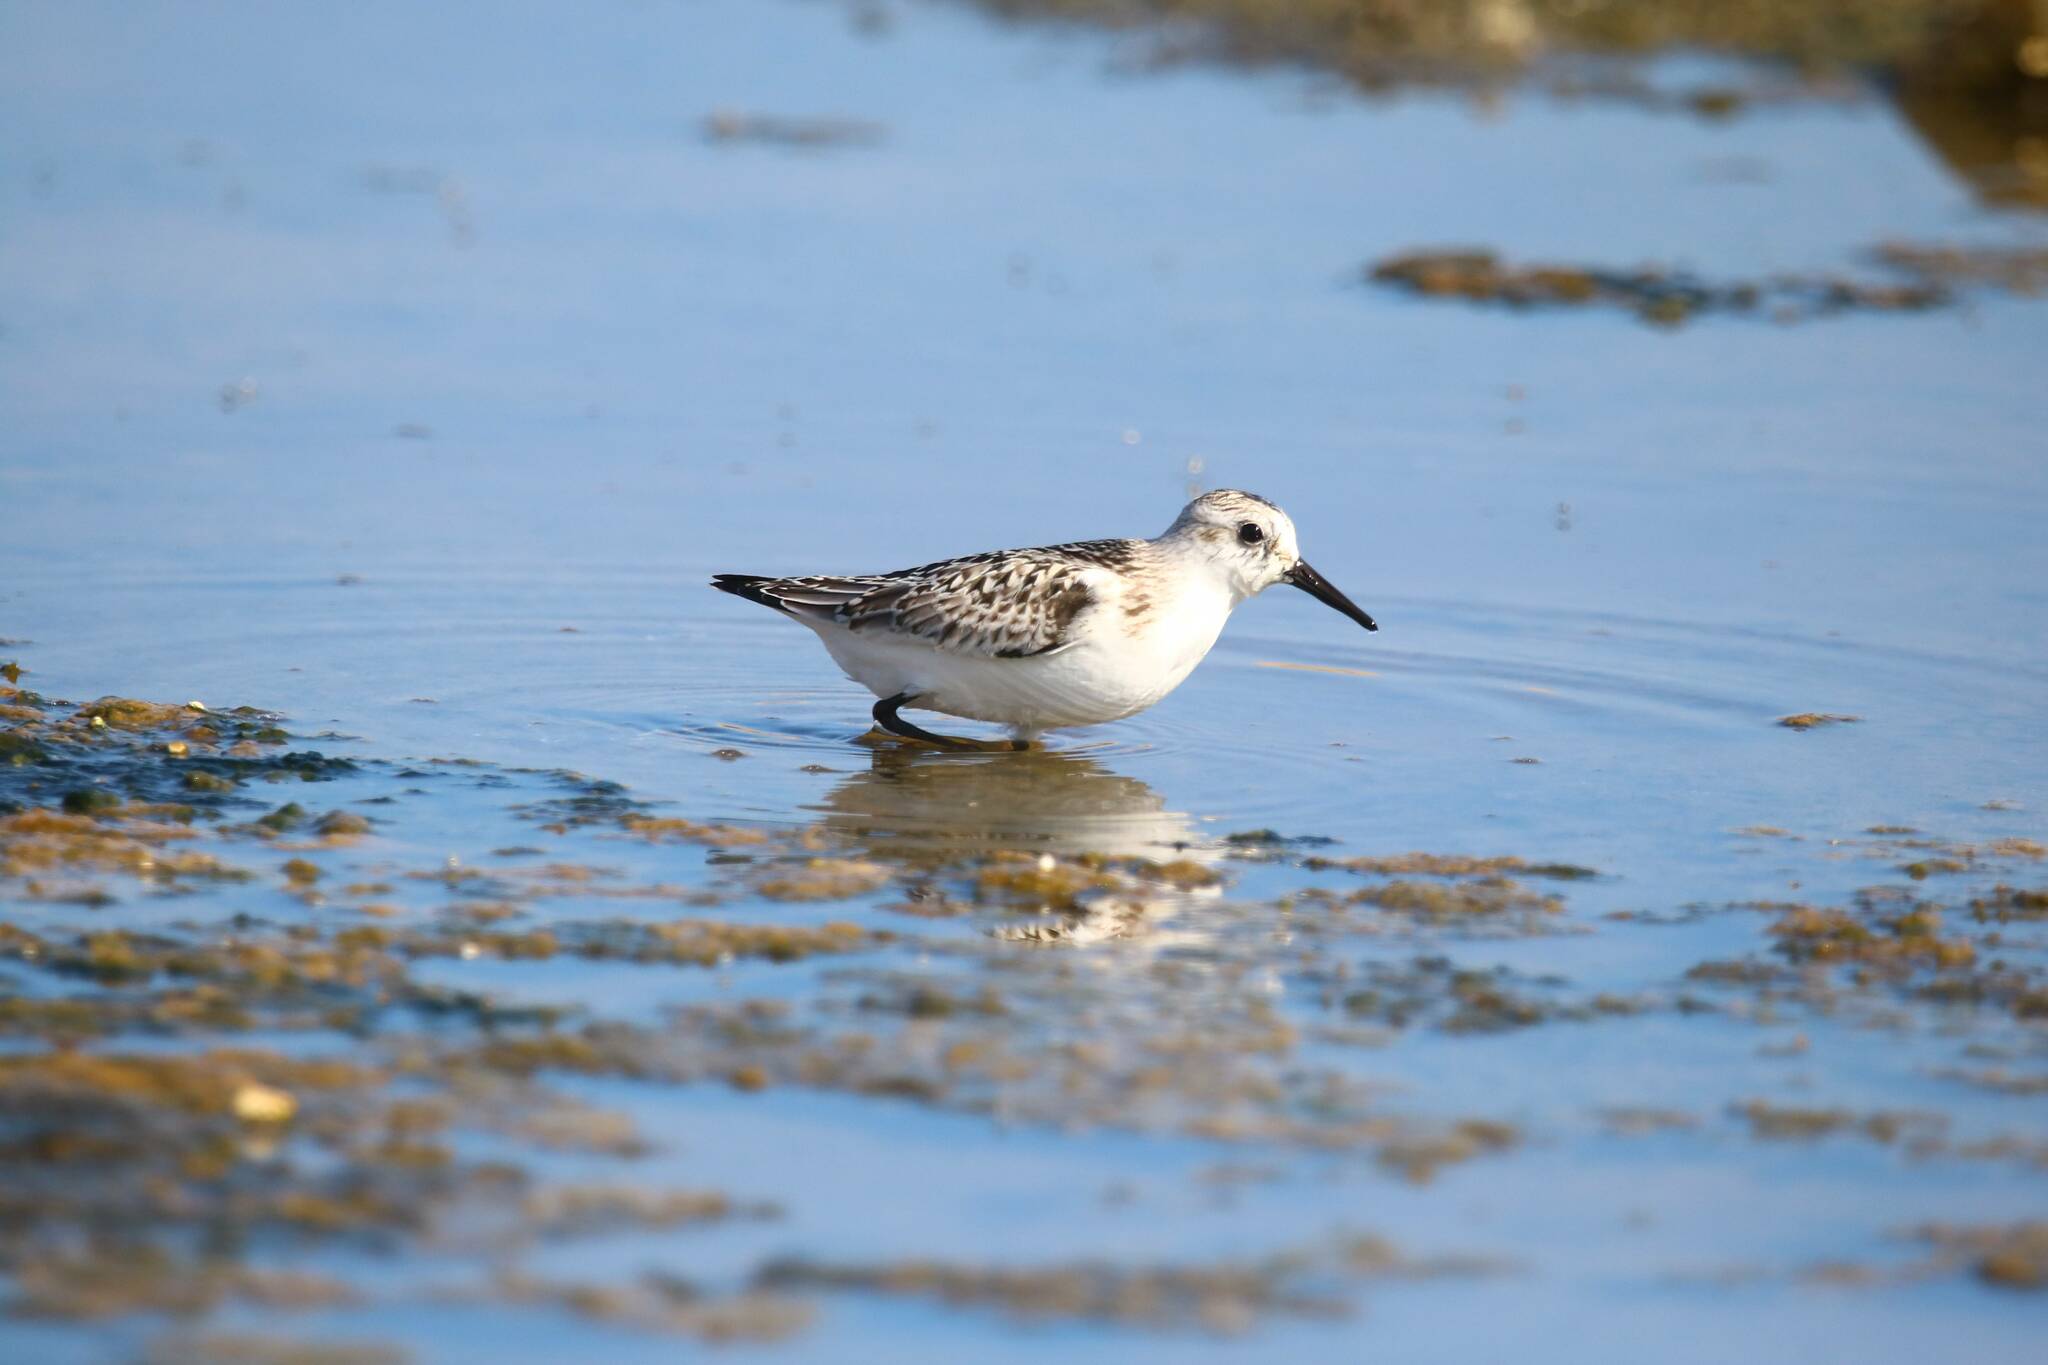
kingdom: Animalia
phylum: Chordata
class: Aves
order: Charadriiformes
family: Scolopacidae
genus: Calidris
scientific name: Calidris alba
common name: Sanderling
